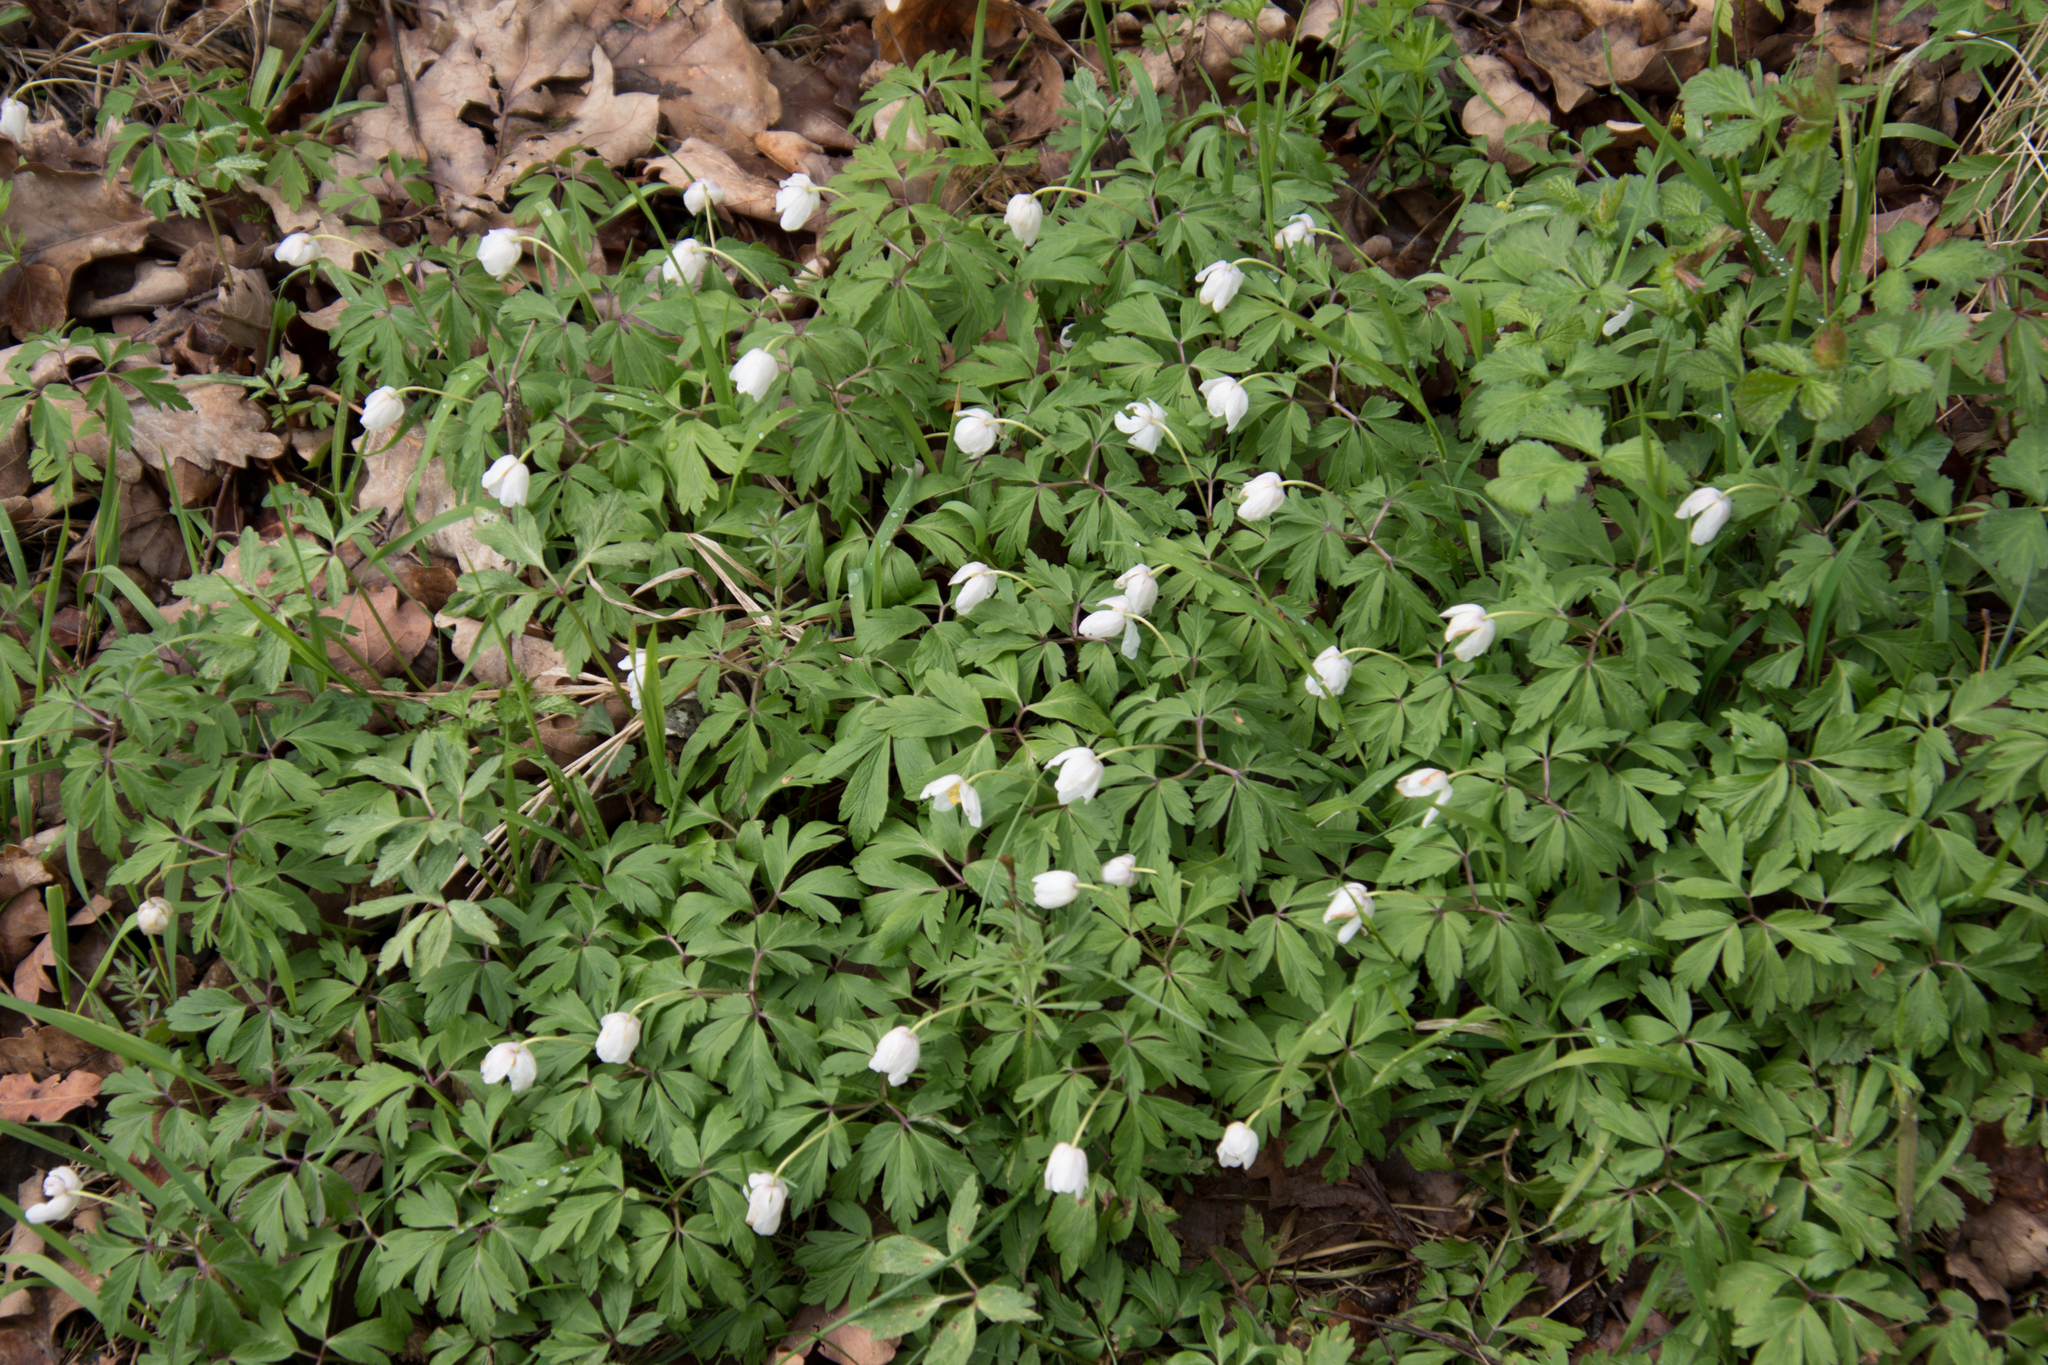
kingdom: Plantae
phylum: Tracheophyta
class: Magnoliopsida
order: Ranunculales
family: Ranunculaceae
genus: Anemone
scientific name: Anemone nemorosa
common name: Wood anemone
